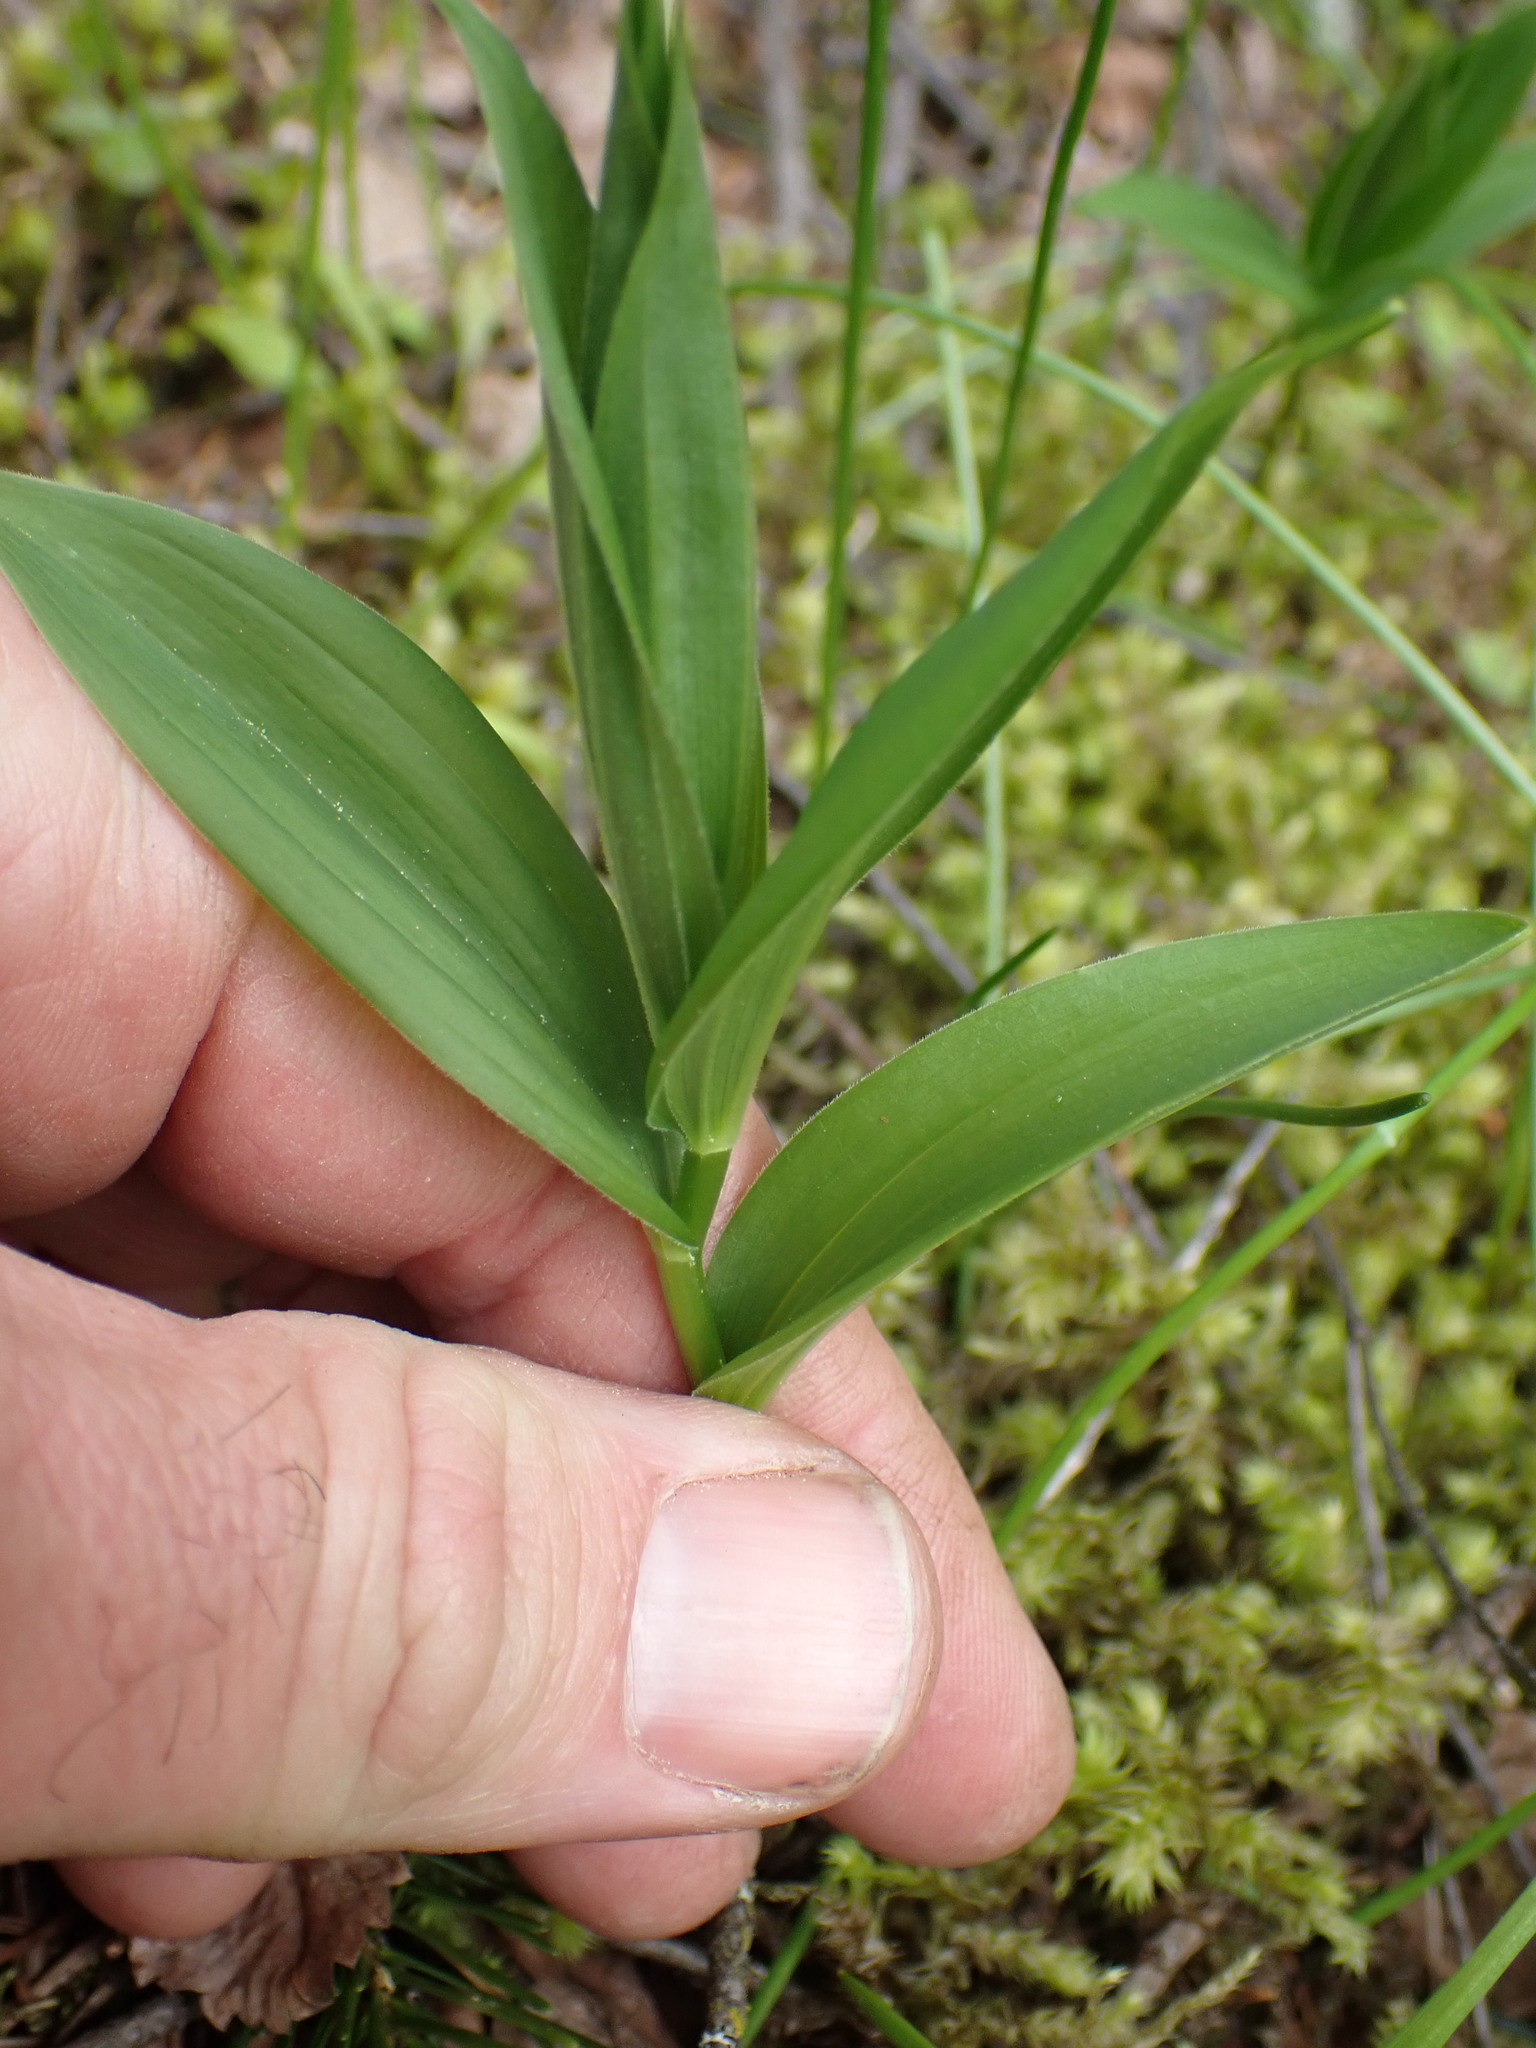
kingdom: Plantae
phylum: Tracheophyta
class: Liliopsida
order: Asparagales
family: Asparagaceae
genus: Maianthemum
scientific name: Maianthemum racemosum
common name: False spikenard
